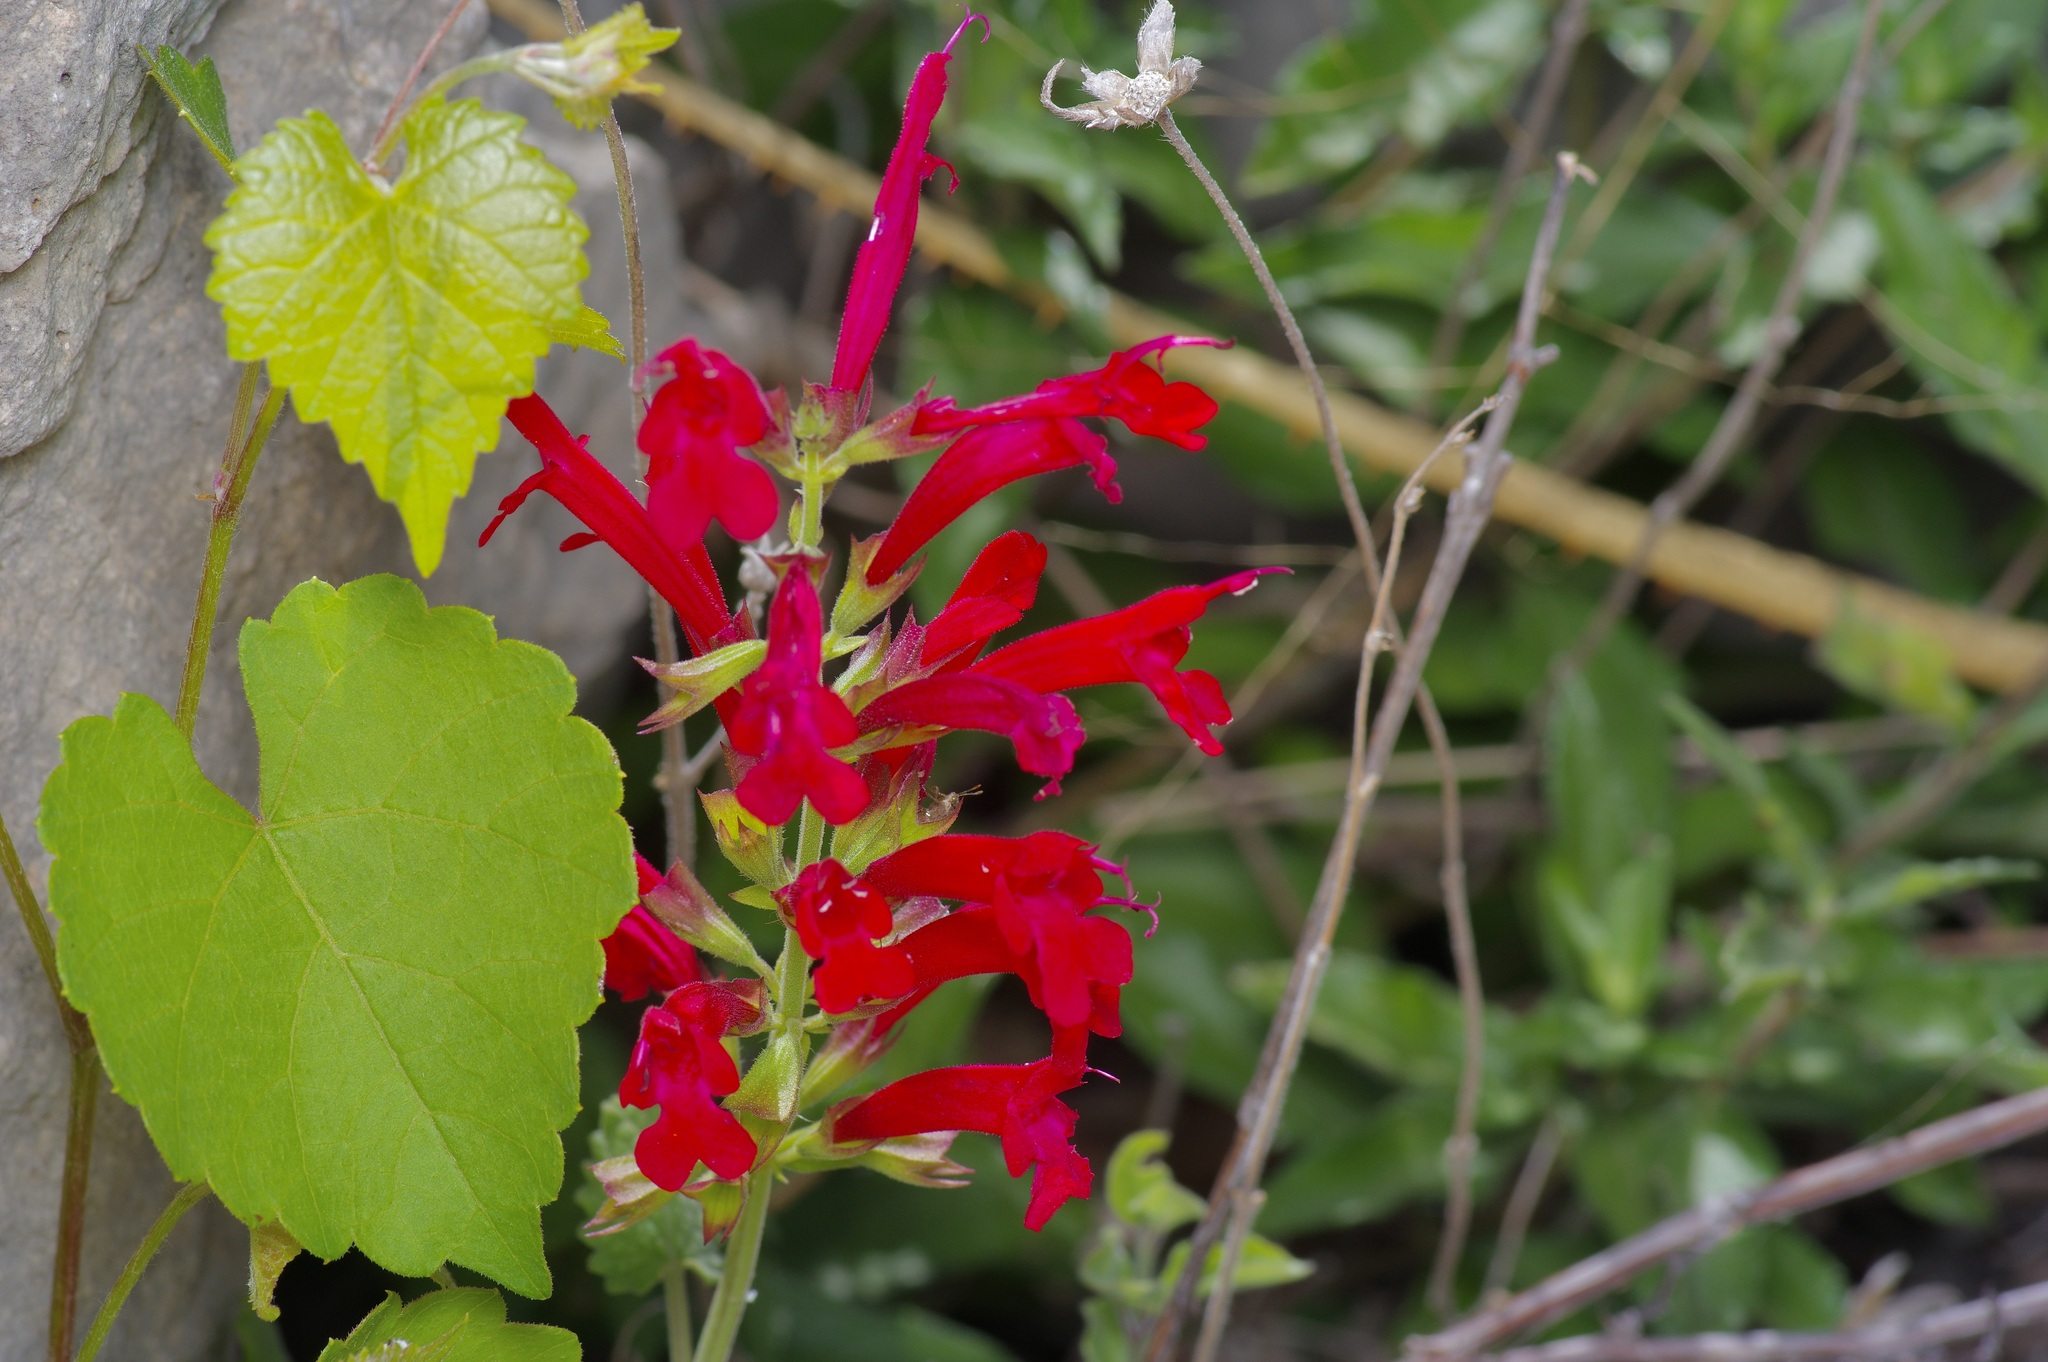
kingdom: Plantae
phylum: Tracheophyta
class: Magnoliopsida
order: Lamiales
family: Lamiaceae
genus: Salvia
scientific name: Salvia roemeriana
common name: Cedar sage
